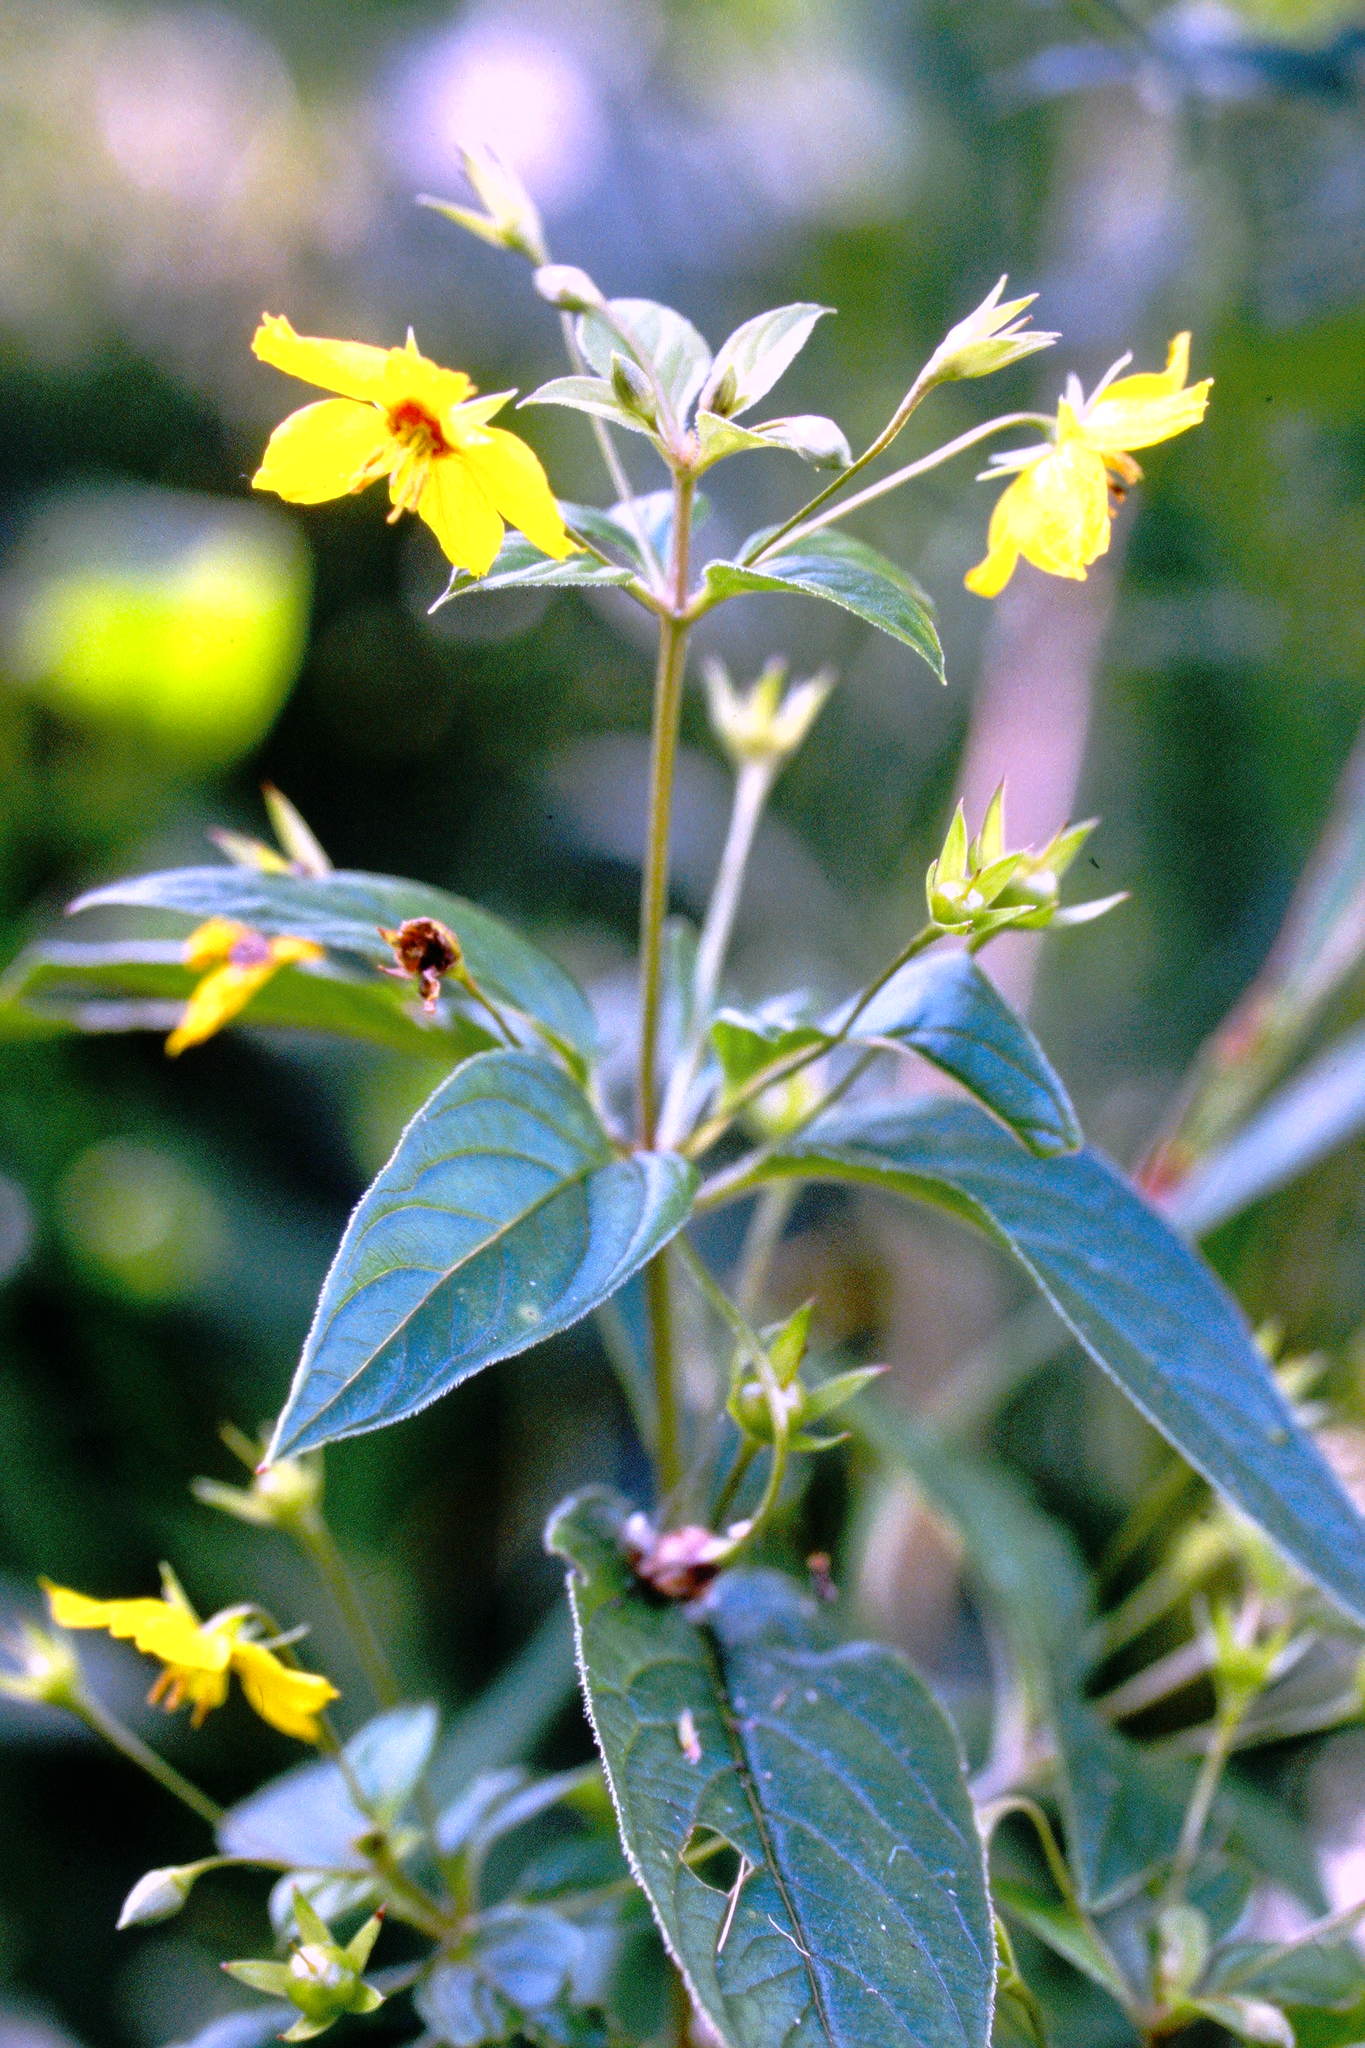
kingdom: Plantae
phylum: Tracheophyta
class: Magnoliopsida
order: Ericales
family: Primulaceae
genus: Lysimachia
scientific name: Lysimachia ciliata
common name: Fringed loosestrife
